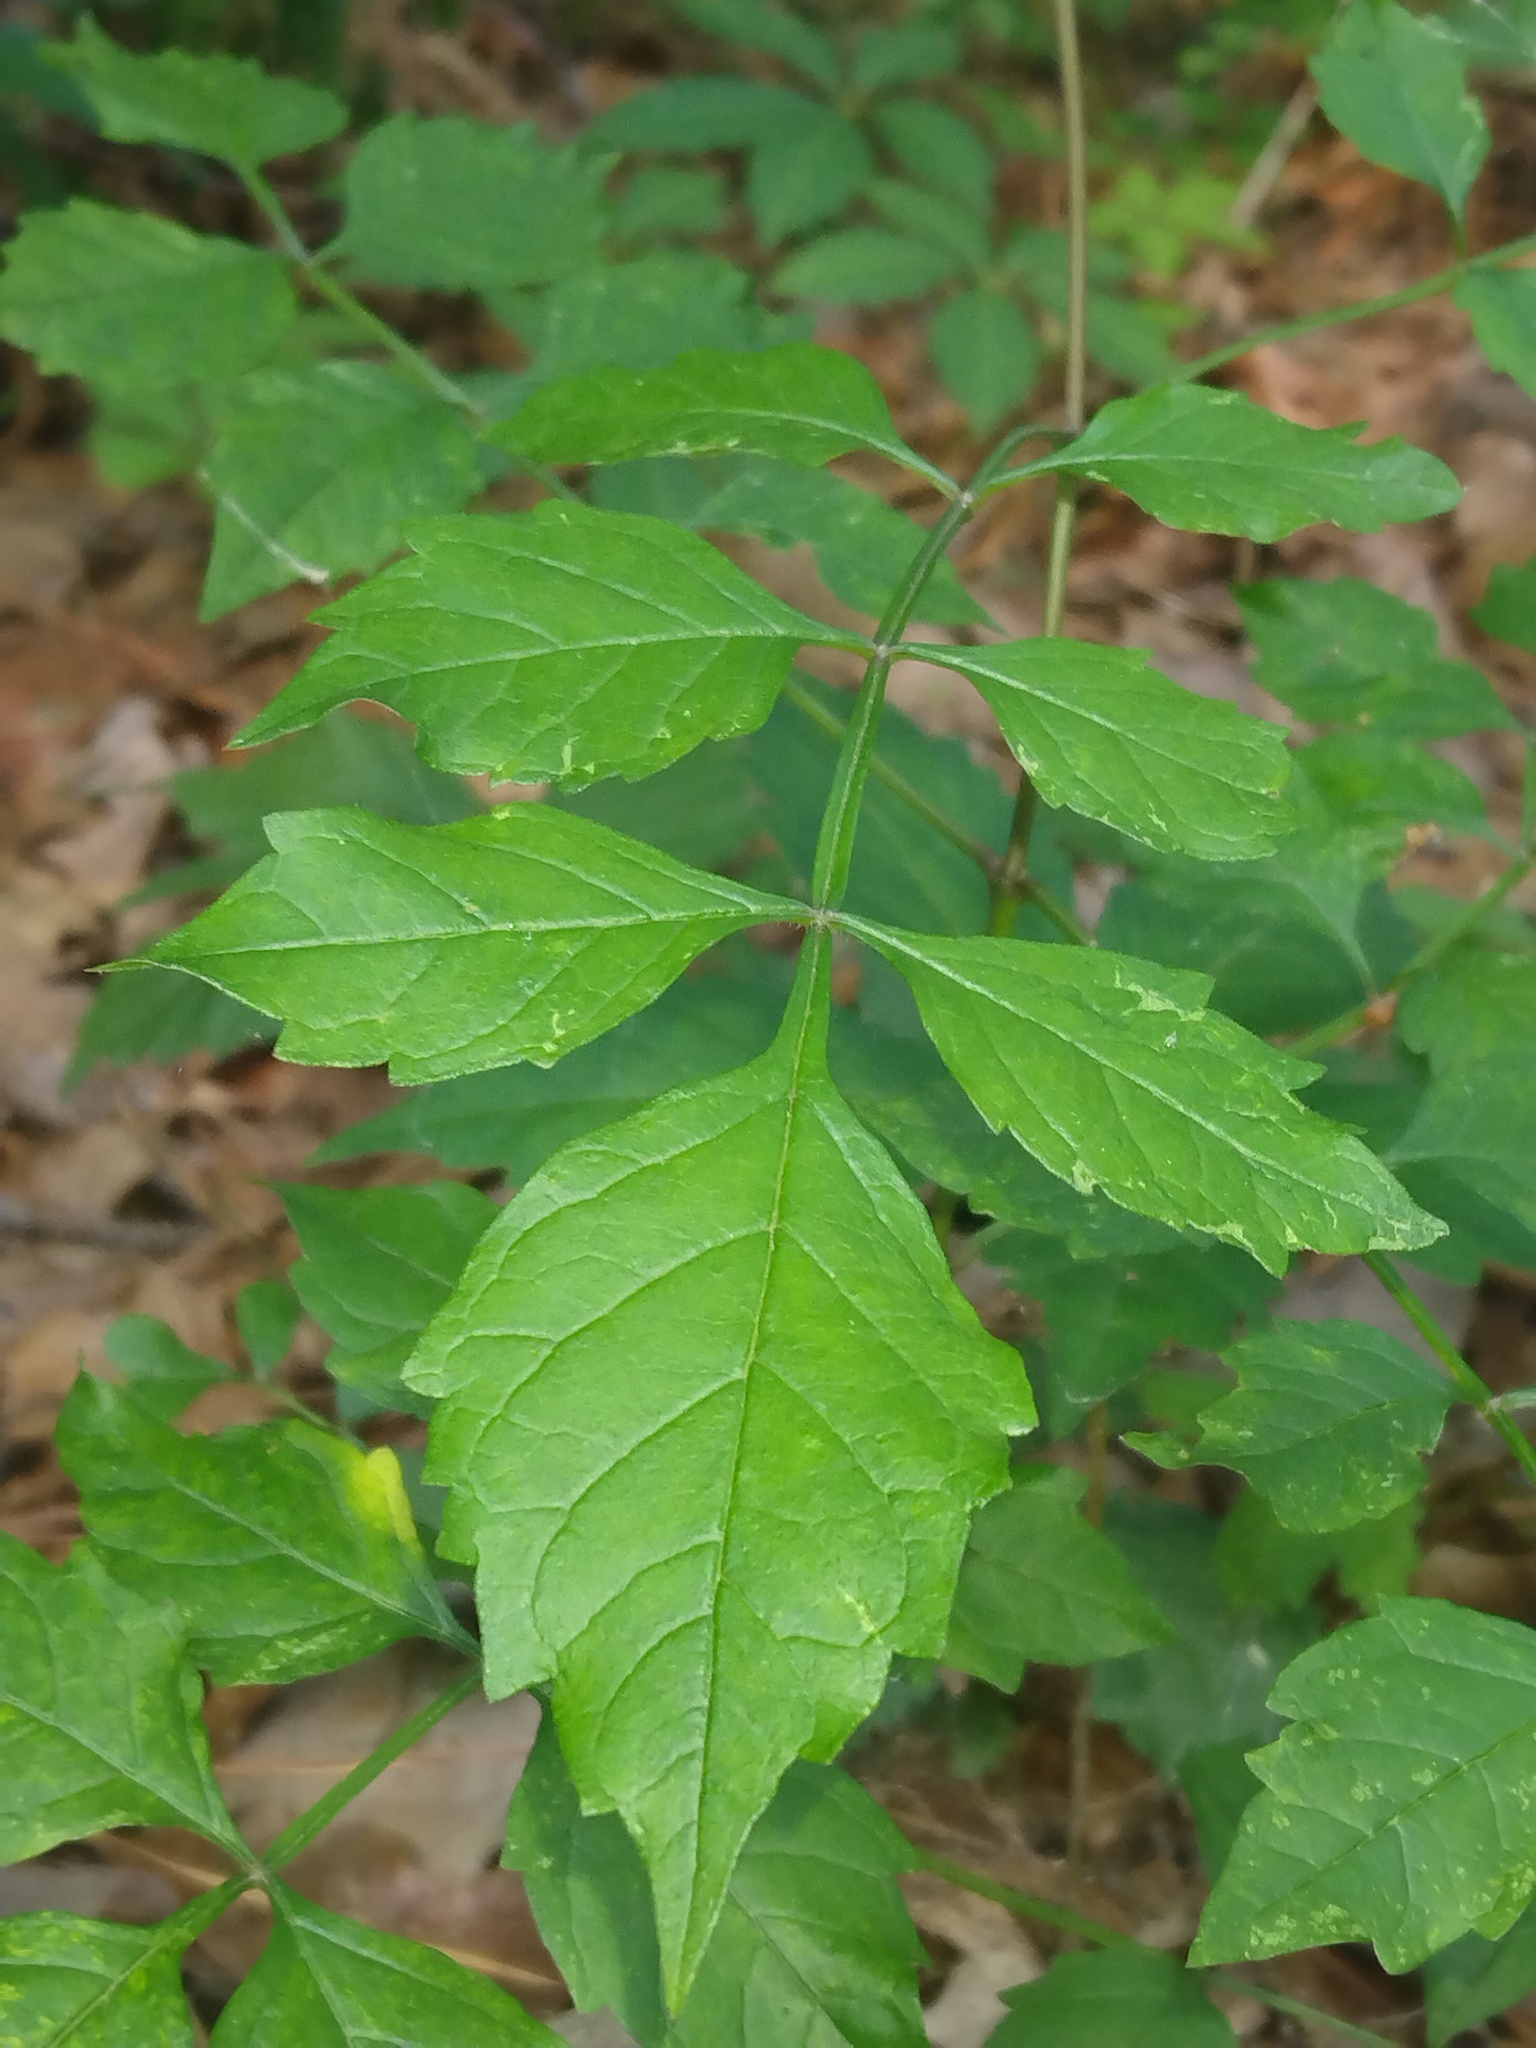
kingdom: Plantae
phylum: Tracheophyta
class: Magnoliopsida
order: Lamiales
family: Bignoniaceae
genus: Campsis
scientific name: Campsis radicans
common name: Trumpet-creeper
